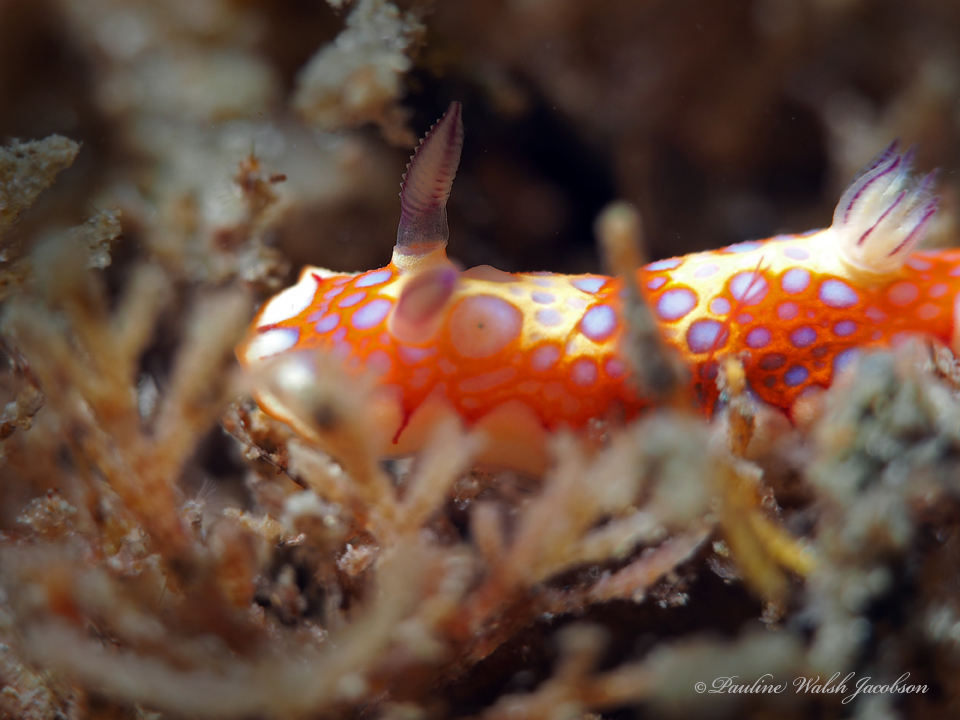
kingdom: Animalia
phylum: Mollusca
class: Gastropoda
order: Nudibranchia
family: Chromodorididae
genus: Felimida
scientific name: Felimida binza
